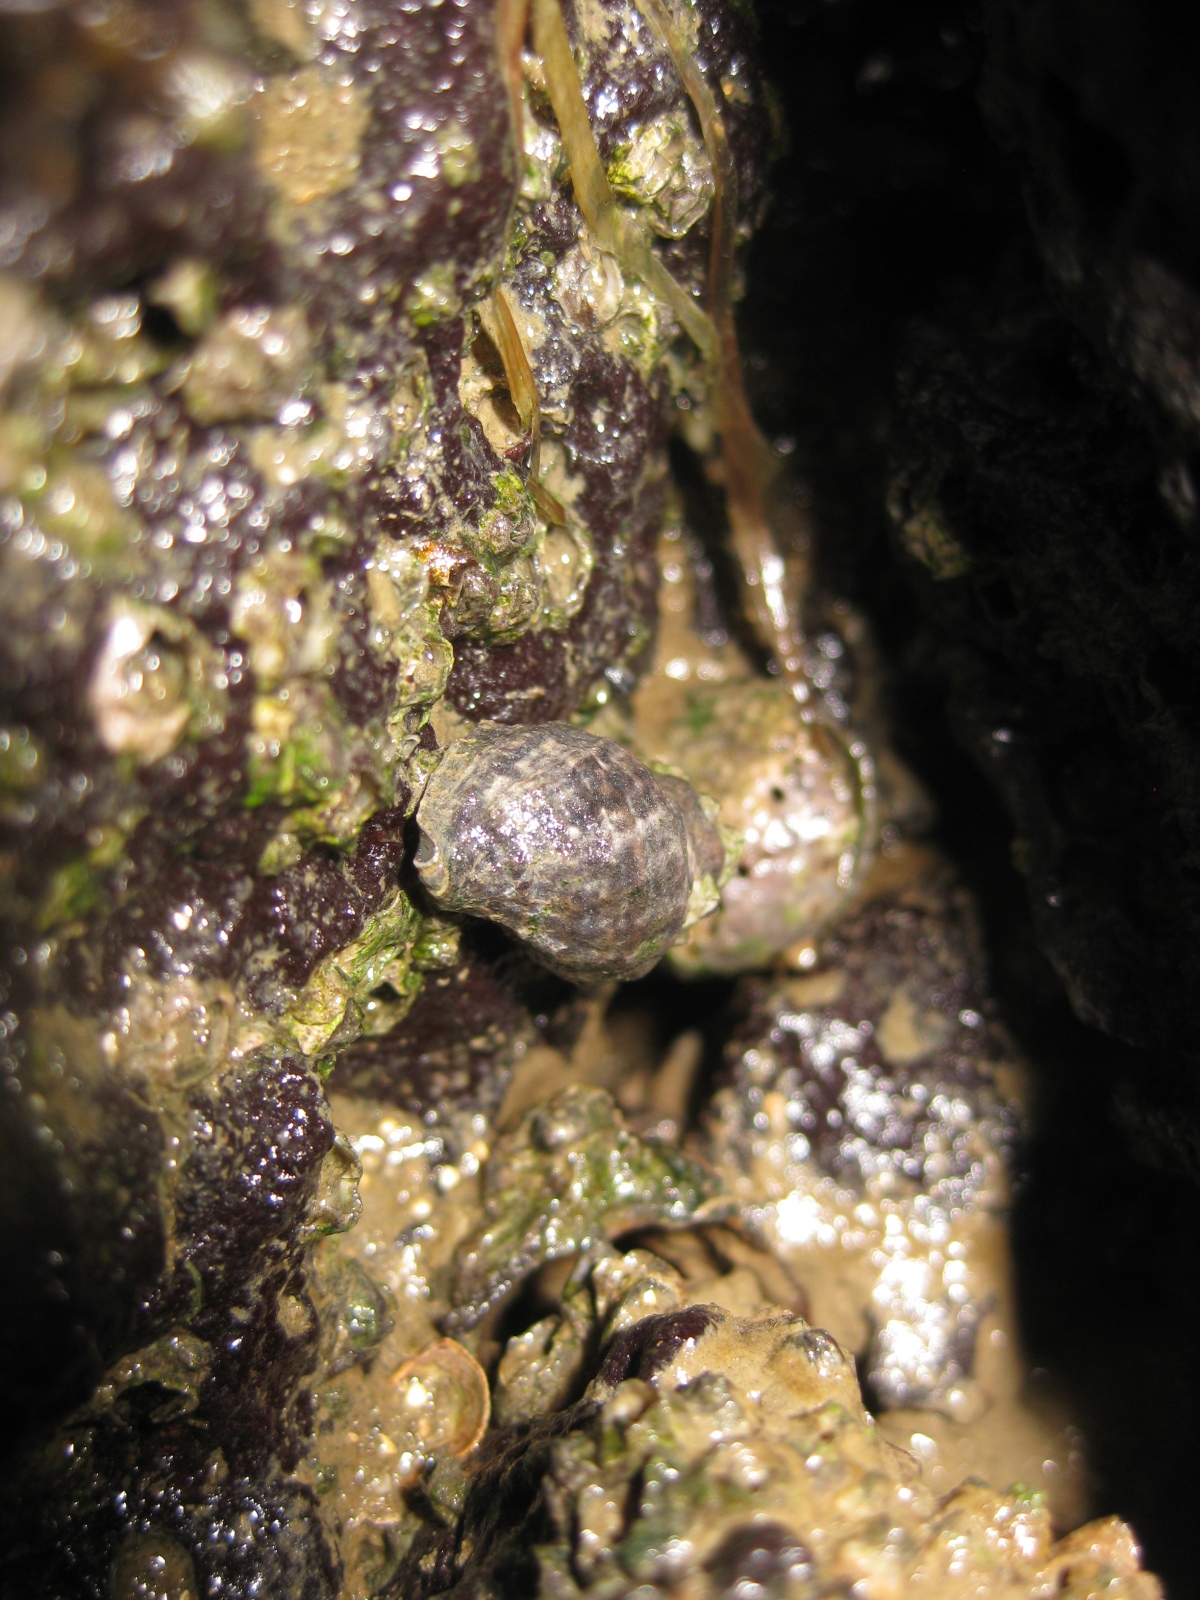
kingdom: Animalia
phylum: Mollusca
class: Gastropoda
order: Neogastropoda
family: Muricidae
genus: Haustrum
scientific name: Haustrum albomarginatum
